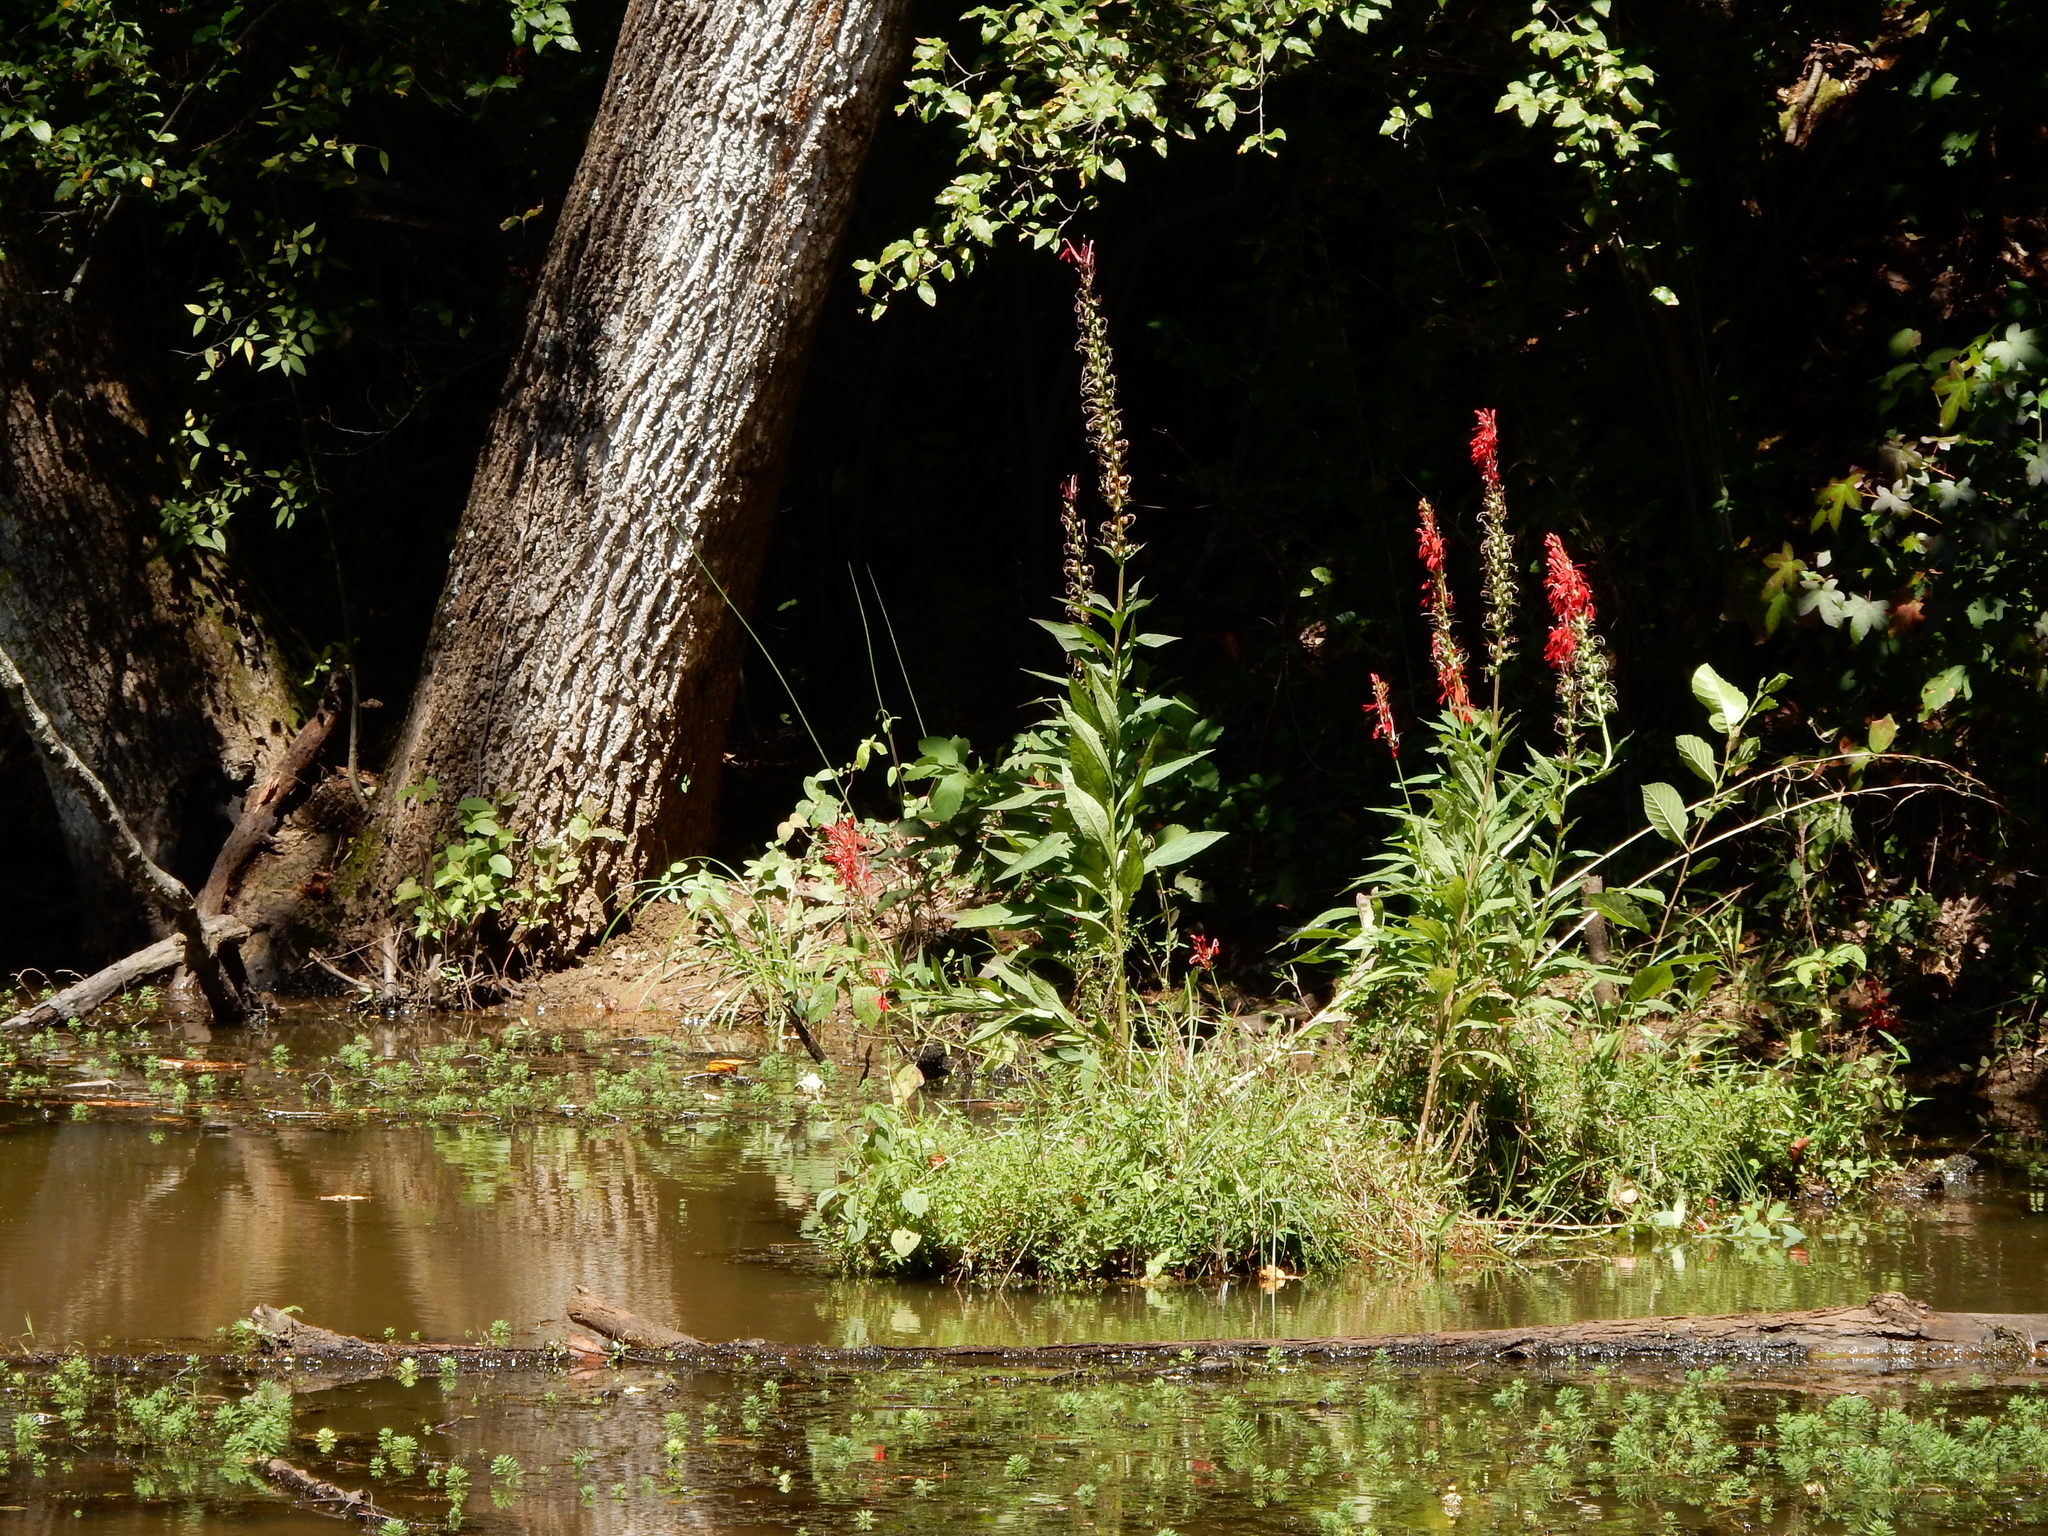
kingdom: Plantae
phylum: Tracheophyta
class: Magnoliopsida
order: Asterales
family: Campanulaceae
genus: Lobelia
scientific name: Lobelia cardinalis
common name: Cardinal flower
